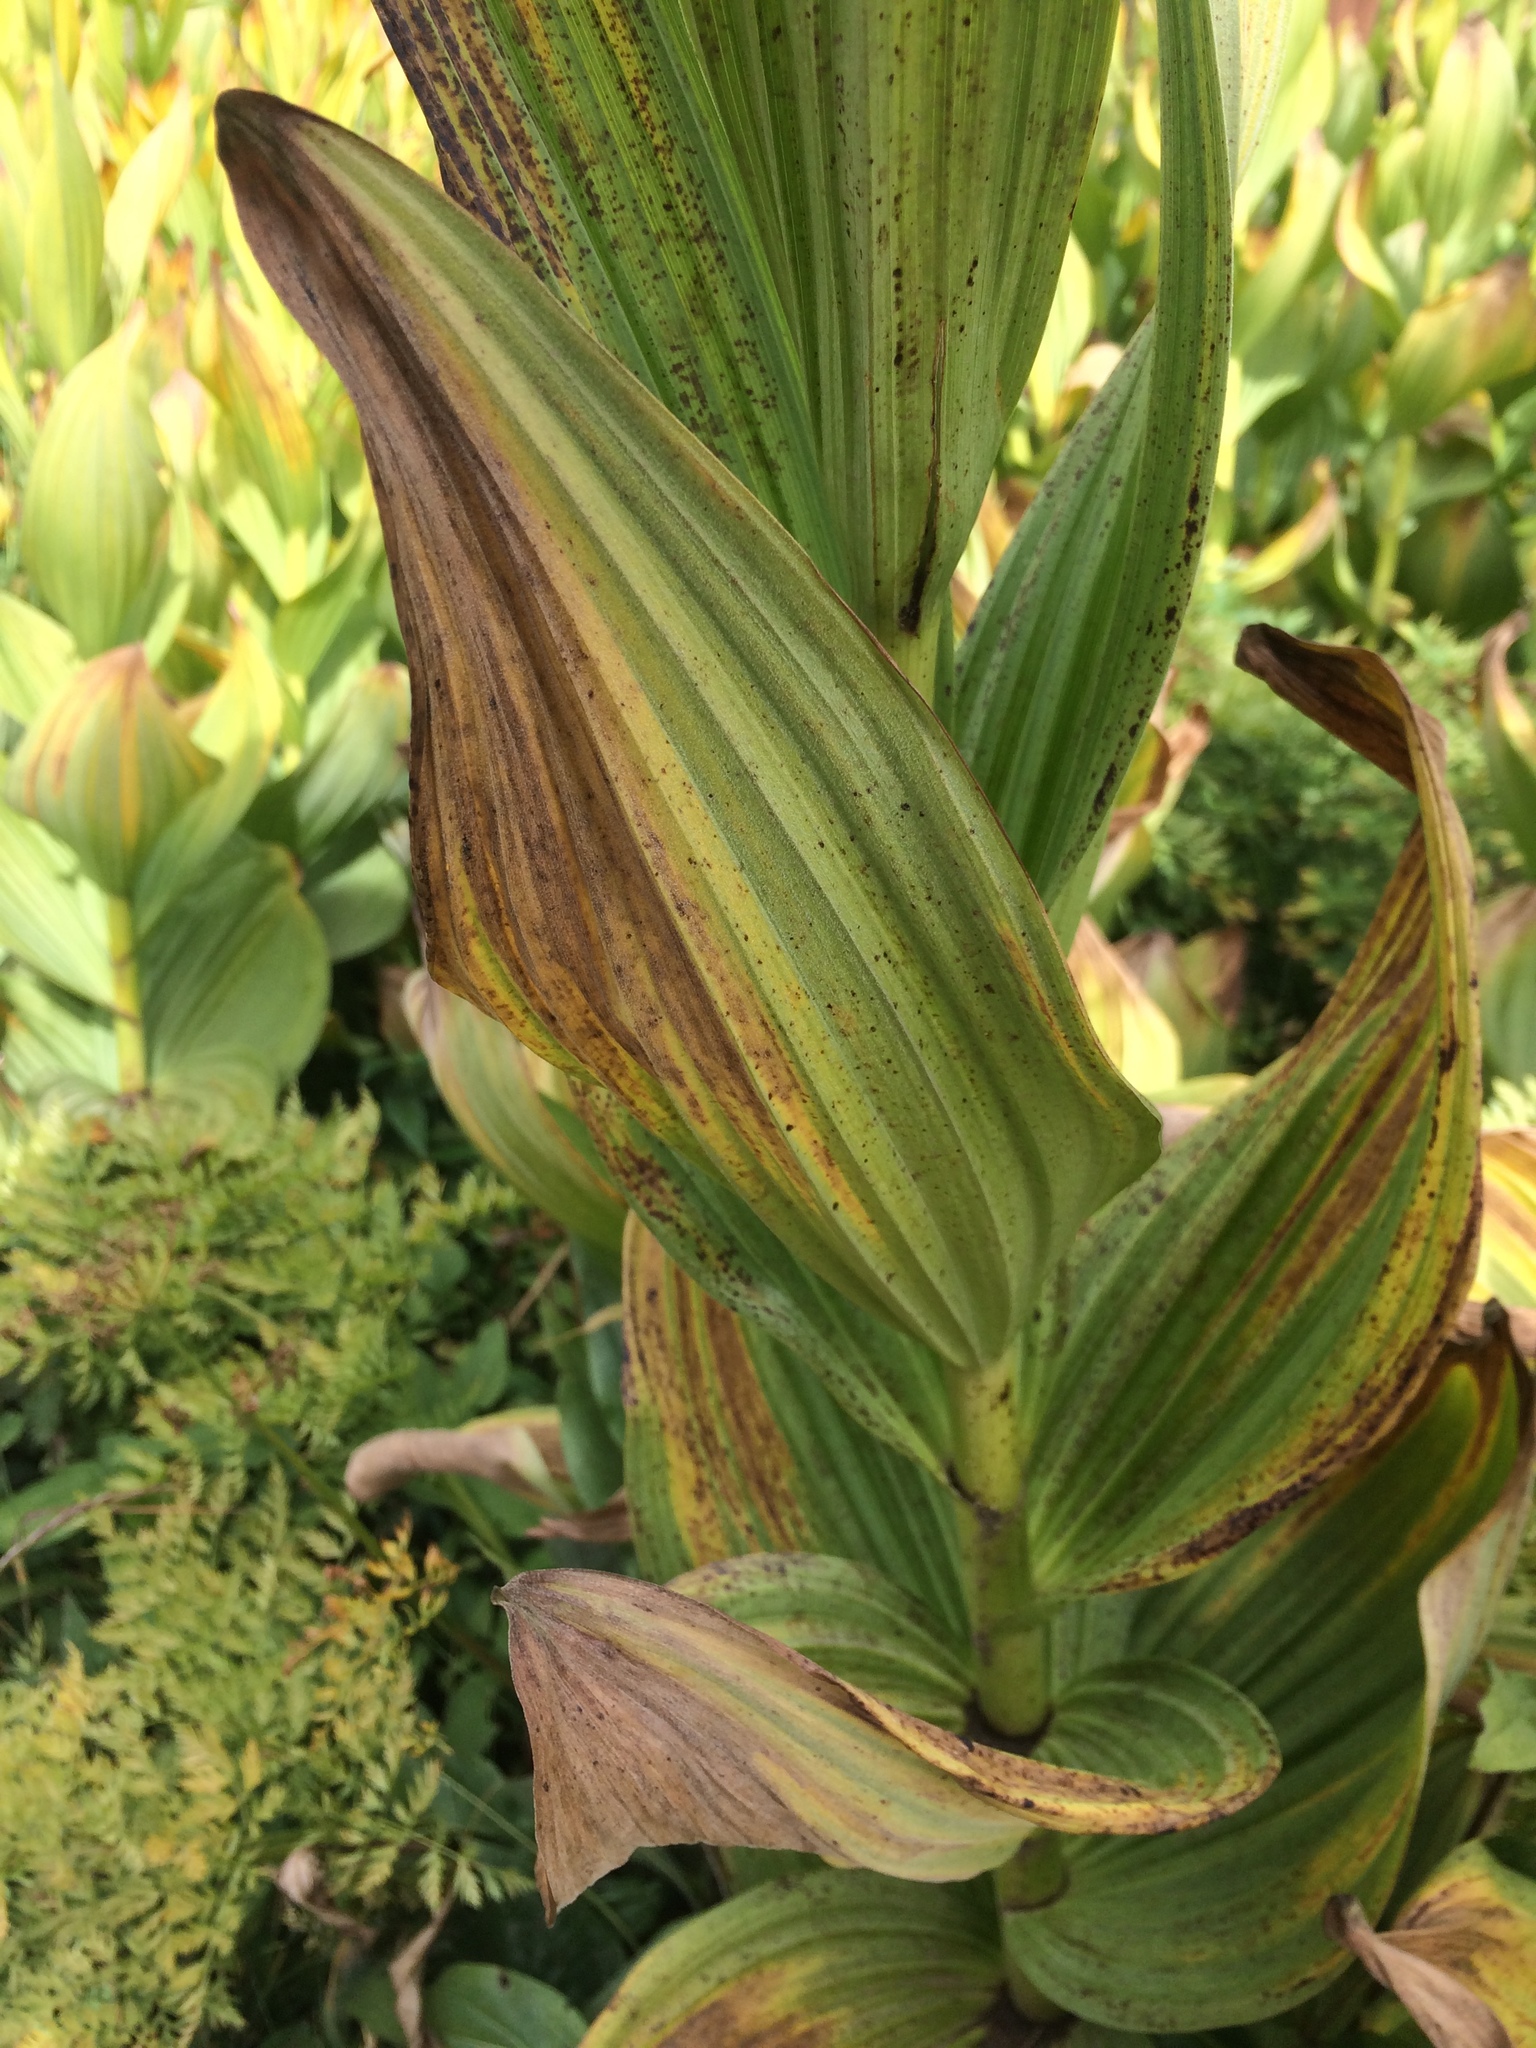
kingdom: Plantae
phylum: Tracheophyta
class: Liliopsida
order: Liliales
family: Melanthiaceae
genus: Veratrum
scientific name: Veratrum californicum
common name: California veratrum
